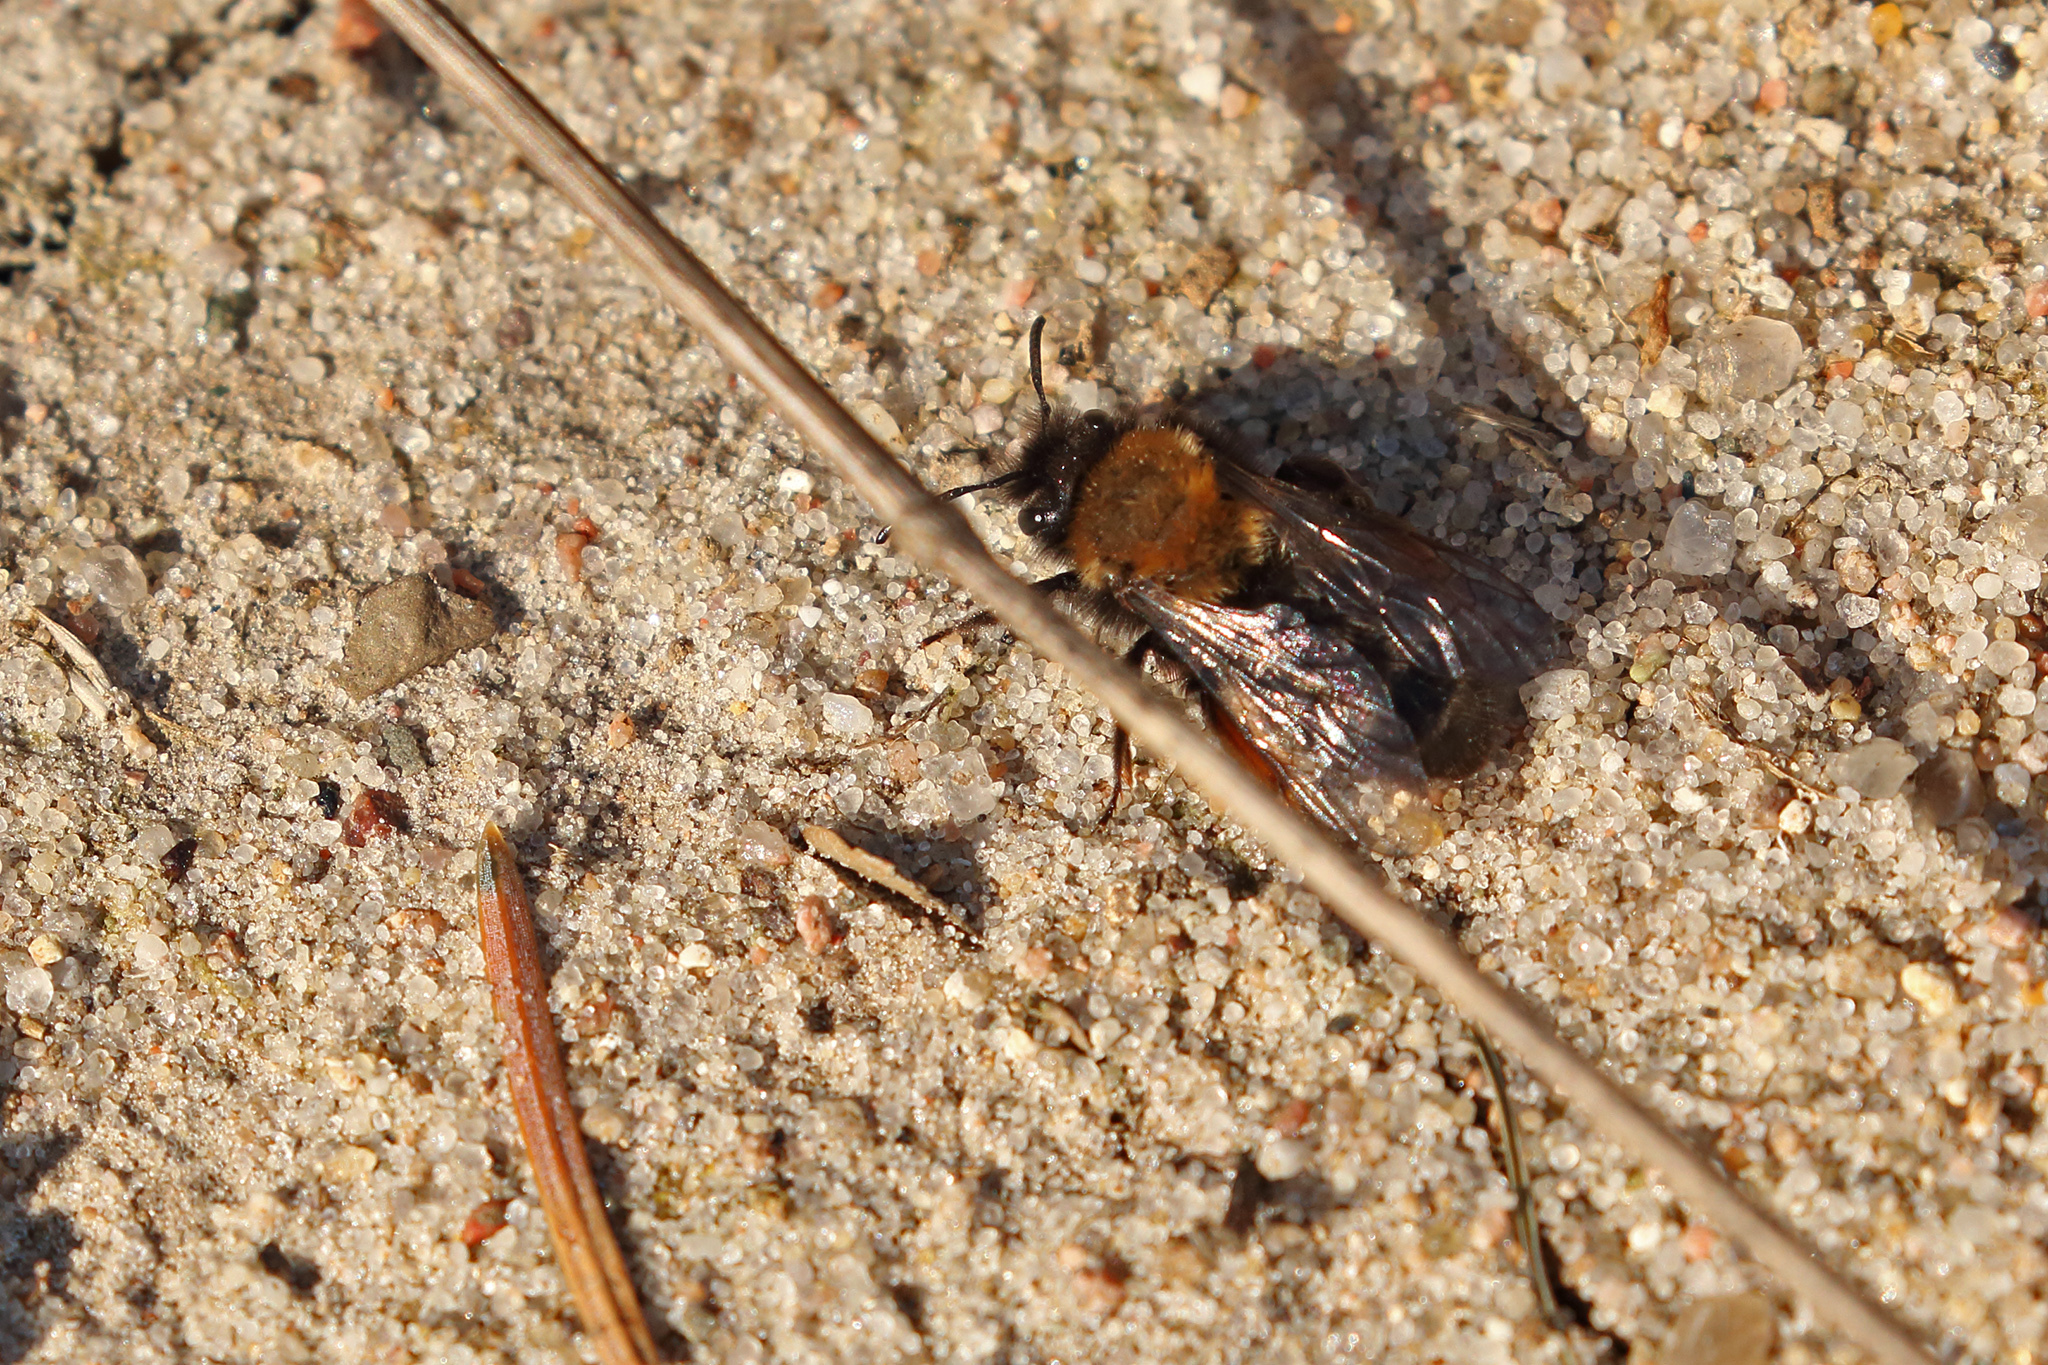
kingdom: Animalia
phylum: Arthropoda
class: Insecta
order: Hymenoptera
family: Andrenidae
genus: Andrena
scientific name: Andrena clarkella
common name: Clarke's mining bee
